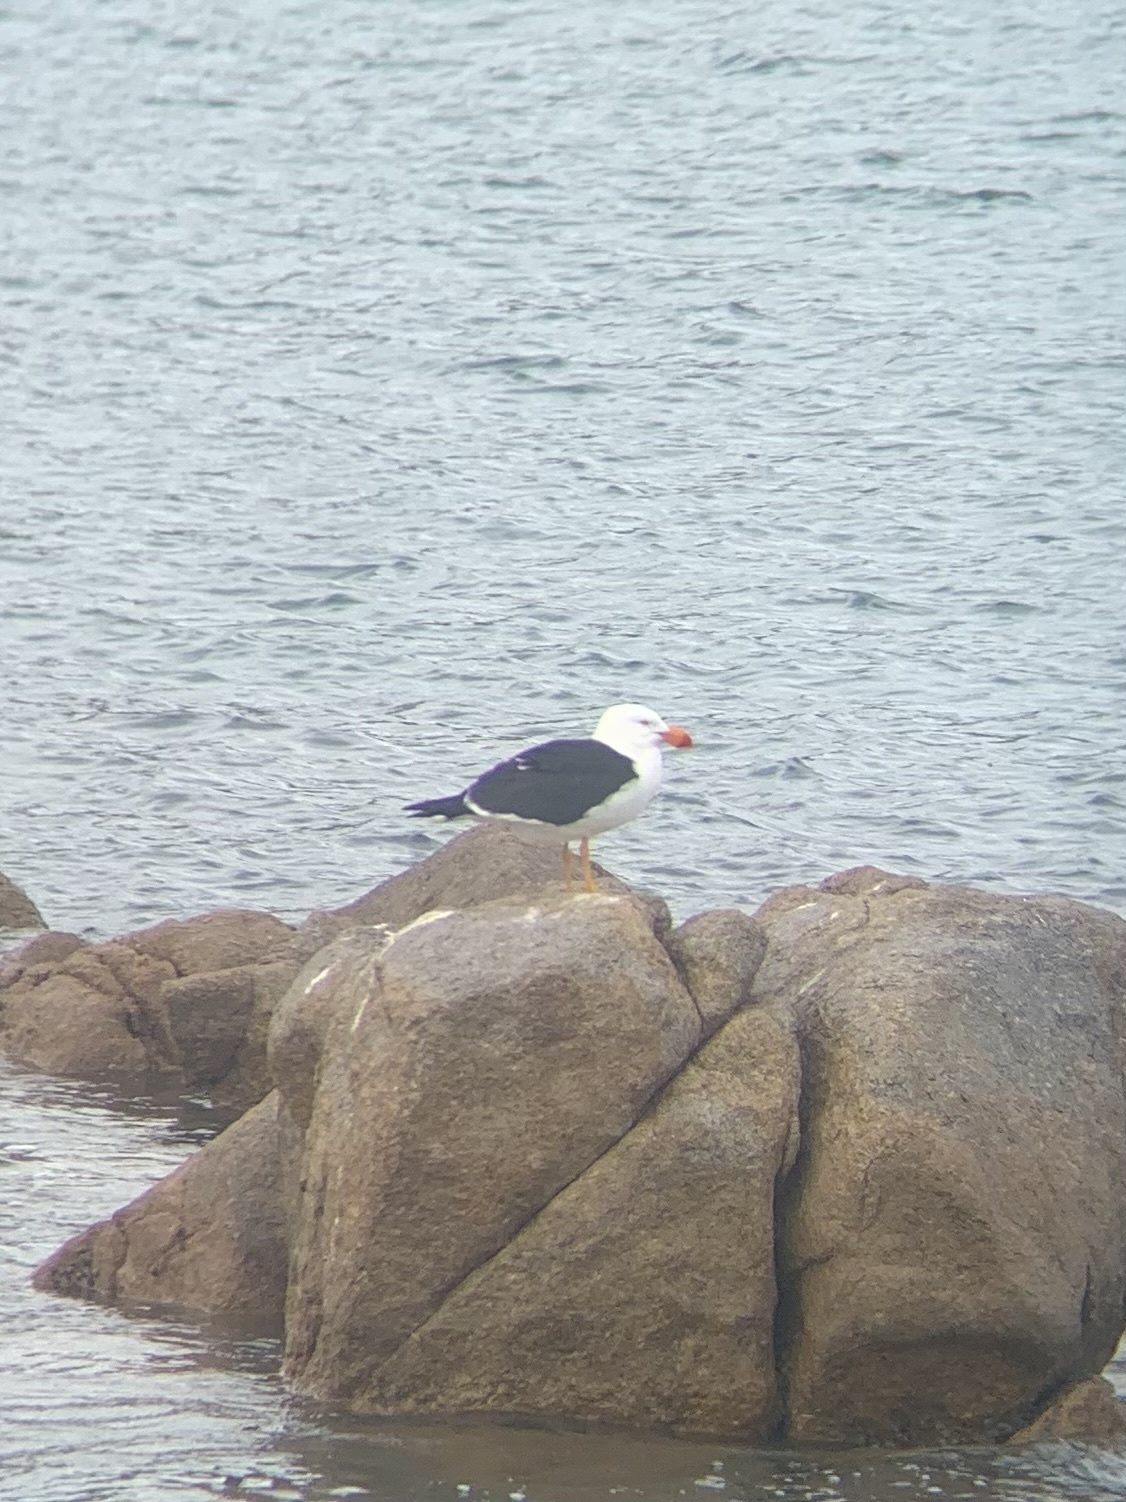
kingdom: Animalia
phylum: Chordata
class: Aves
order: Charadriiformes
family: Laridae
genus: Larus
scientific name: Larus pacificus
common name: Pacific gull
